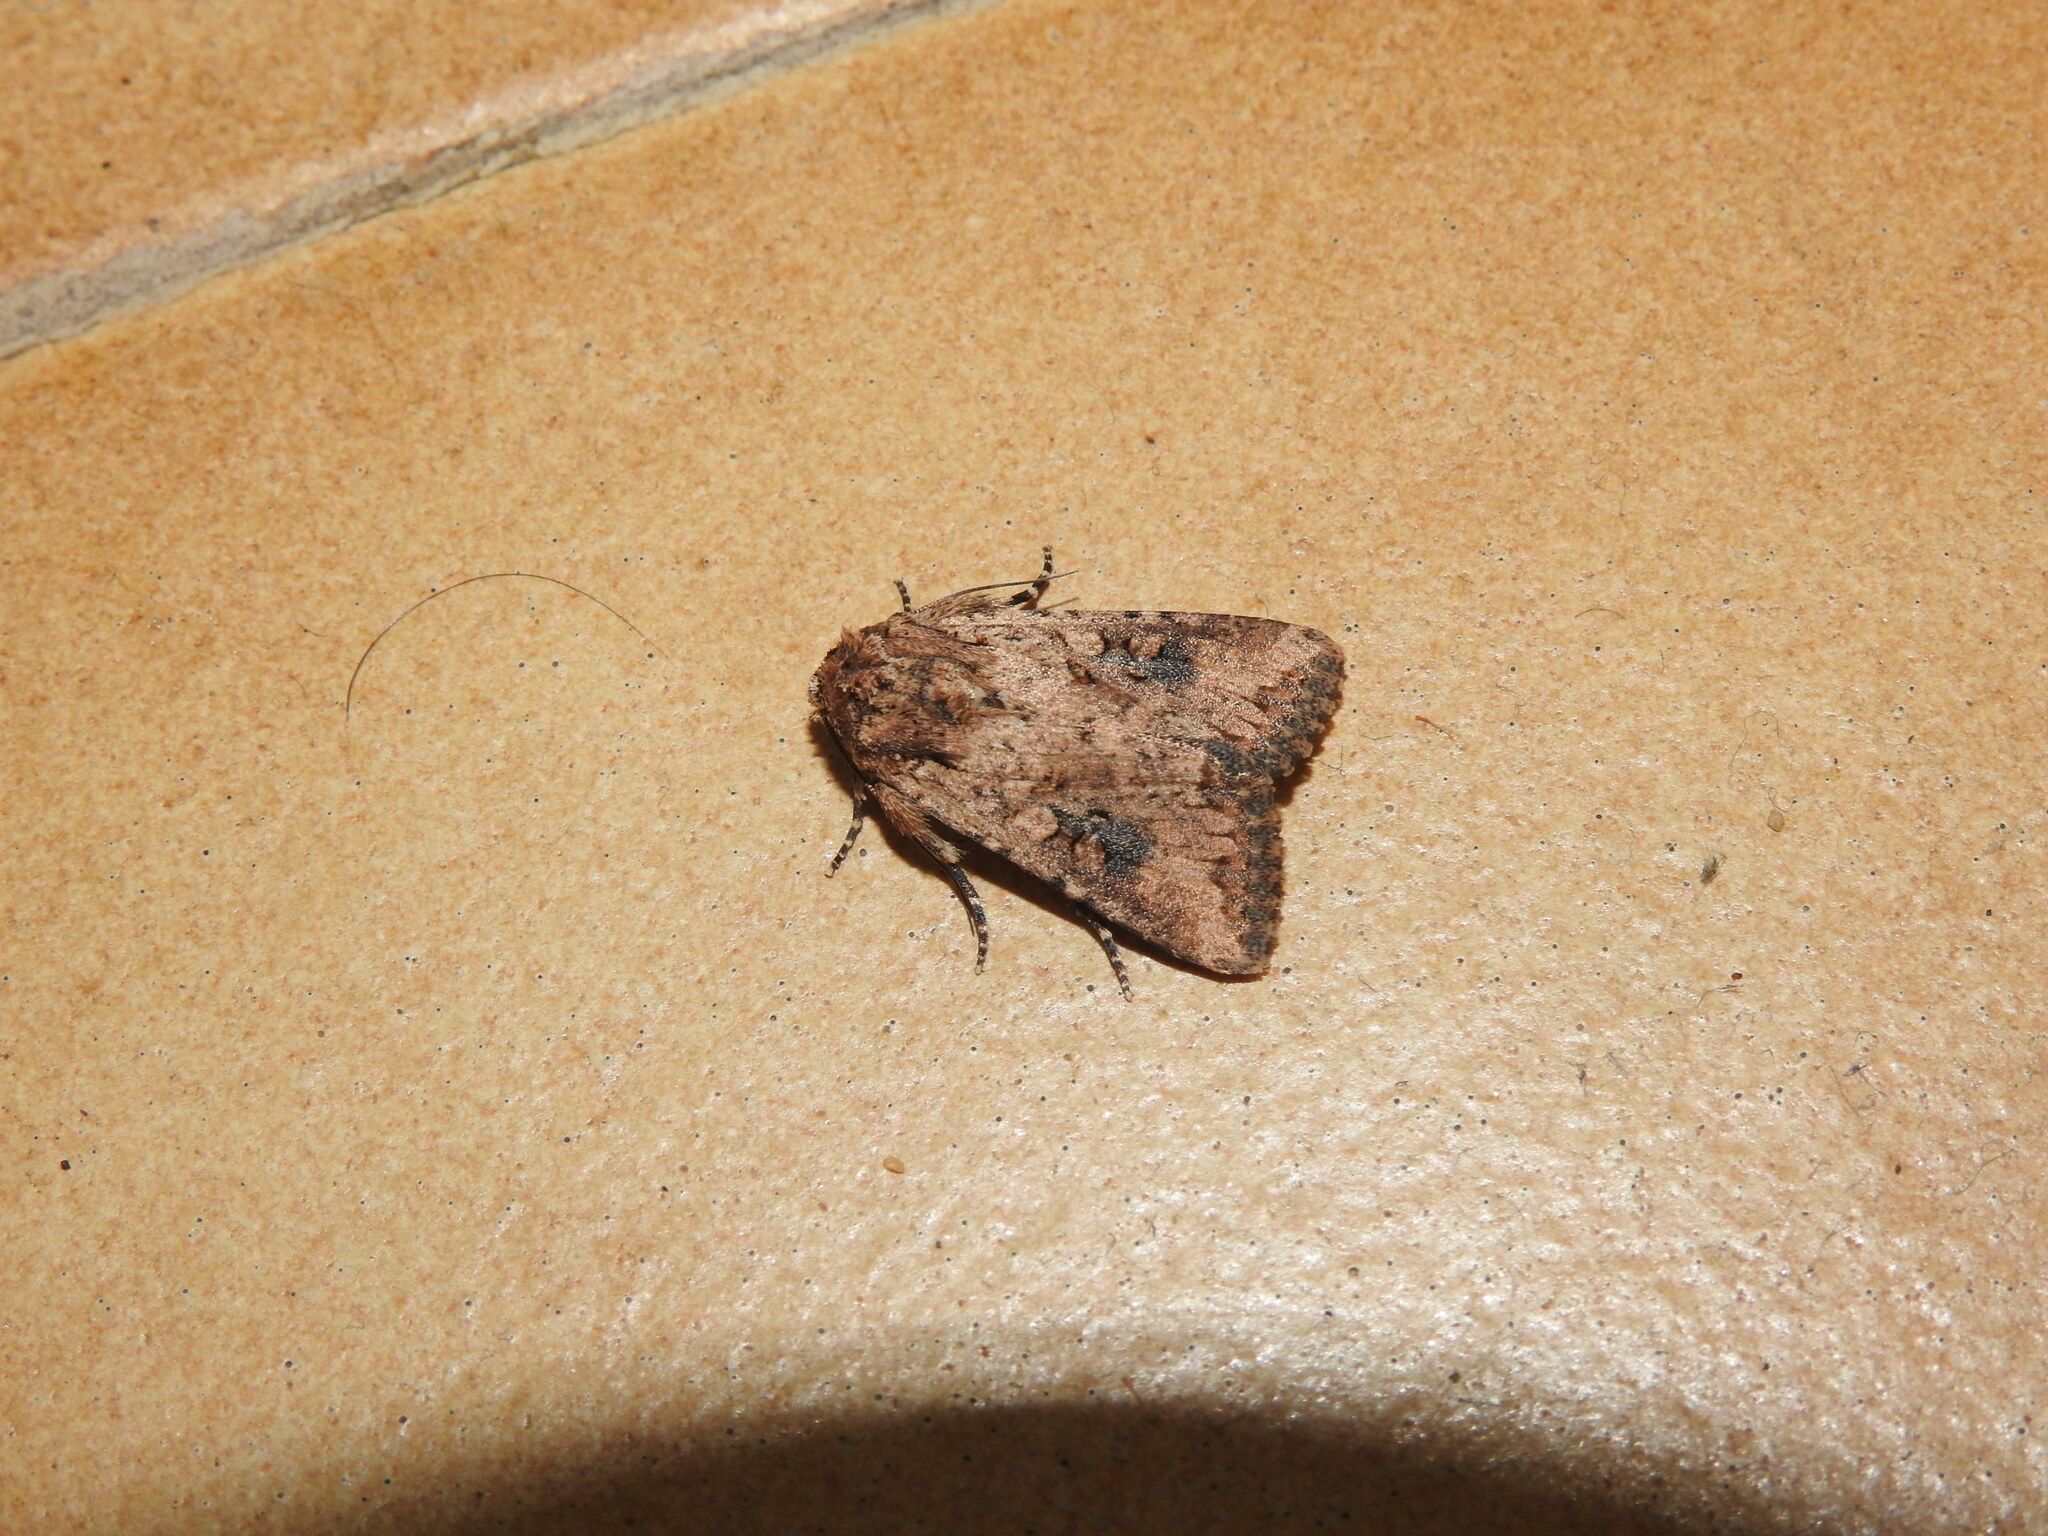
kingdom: Animalia
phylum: Arthropoda
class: Insecta
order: Lepidoptera
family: Noctuidae
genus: Mythimna
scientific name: Mythimna languida
